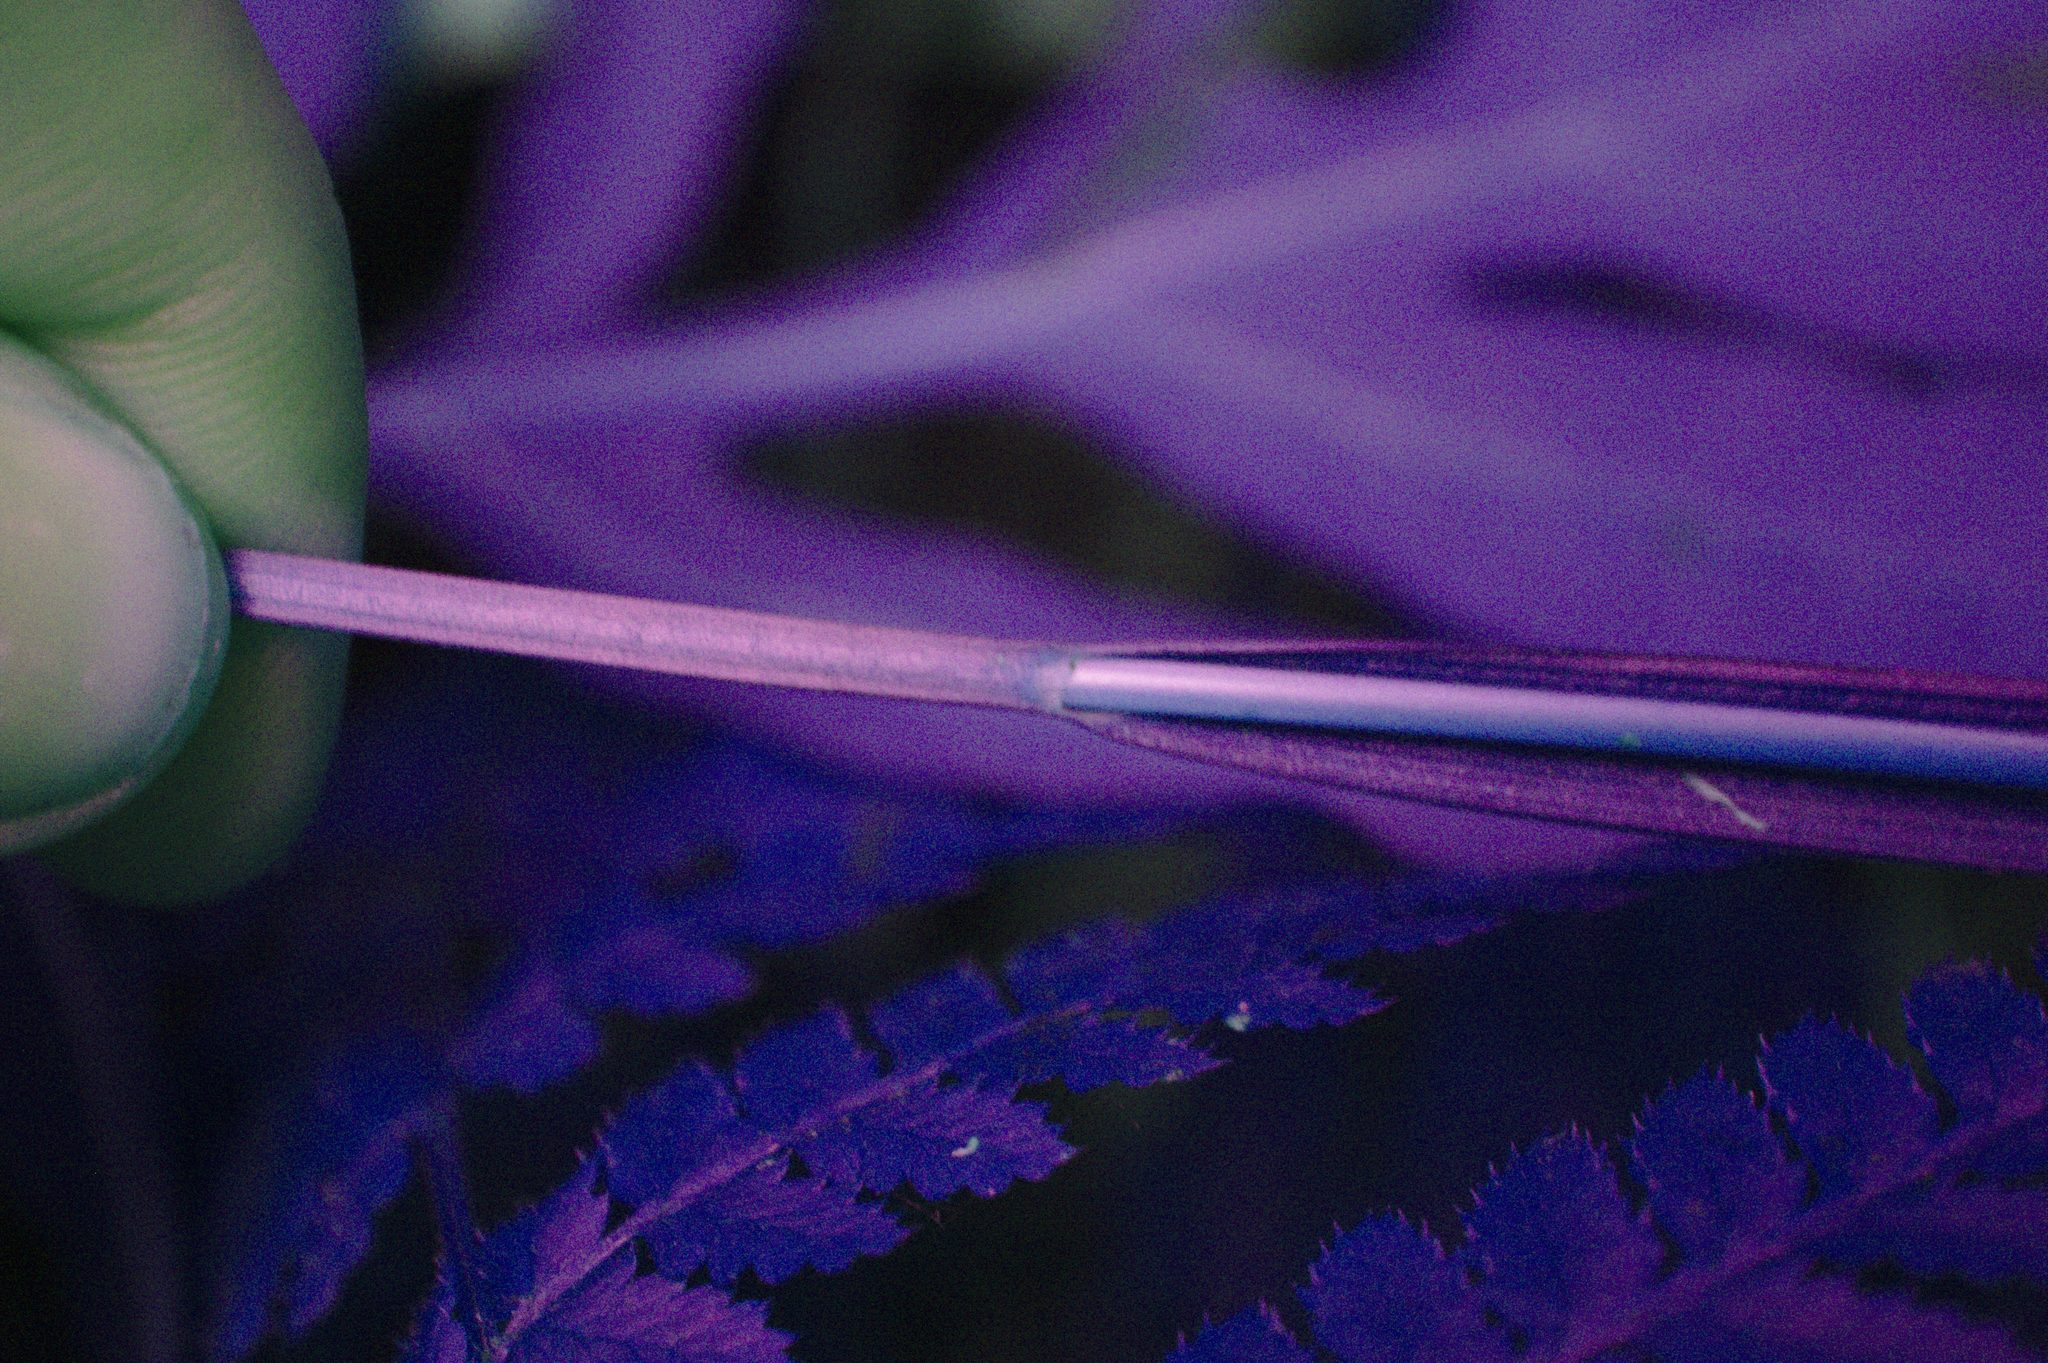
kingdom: Plantae
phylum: Tracheophyta
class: Liliopsida
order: Poales
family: Cyperaceae
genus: Carex
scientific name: Carex intumescens
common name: Greater bladder sedge
